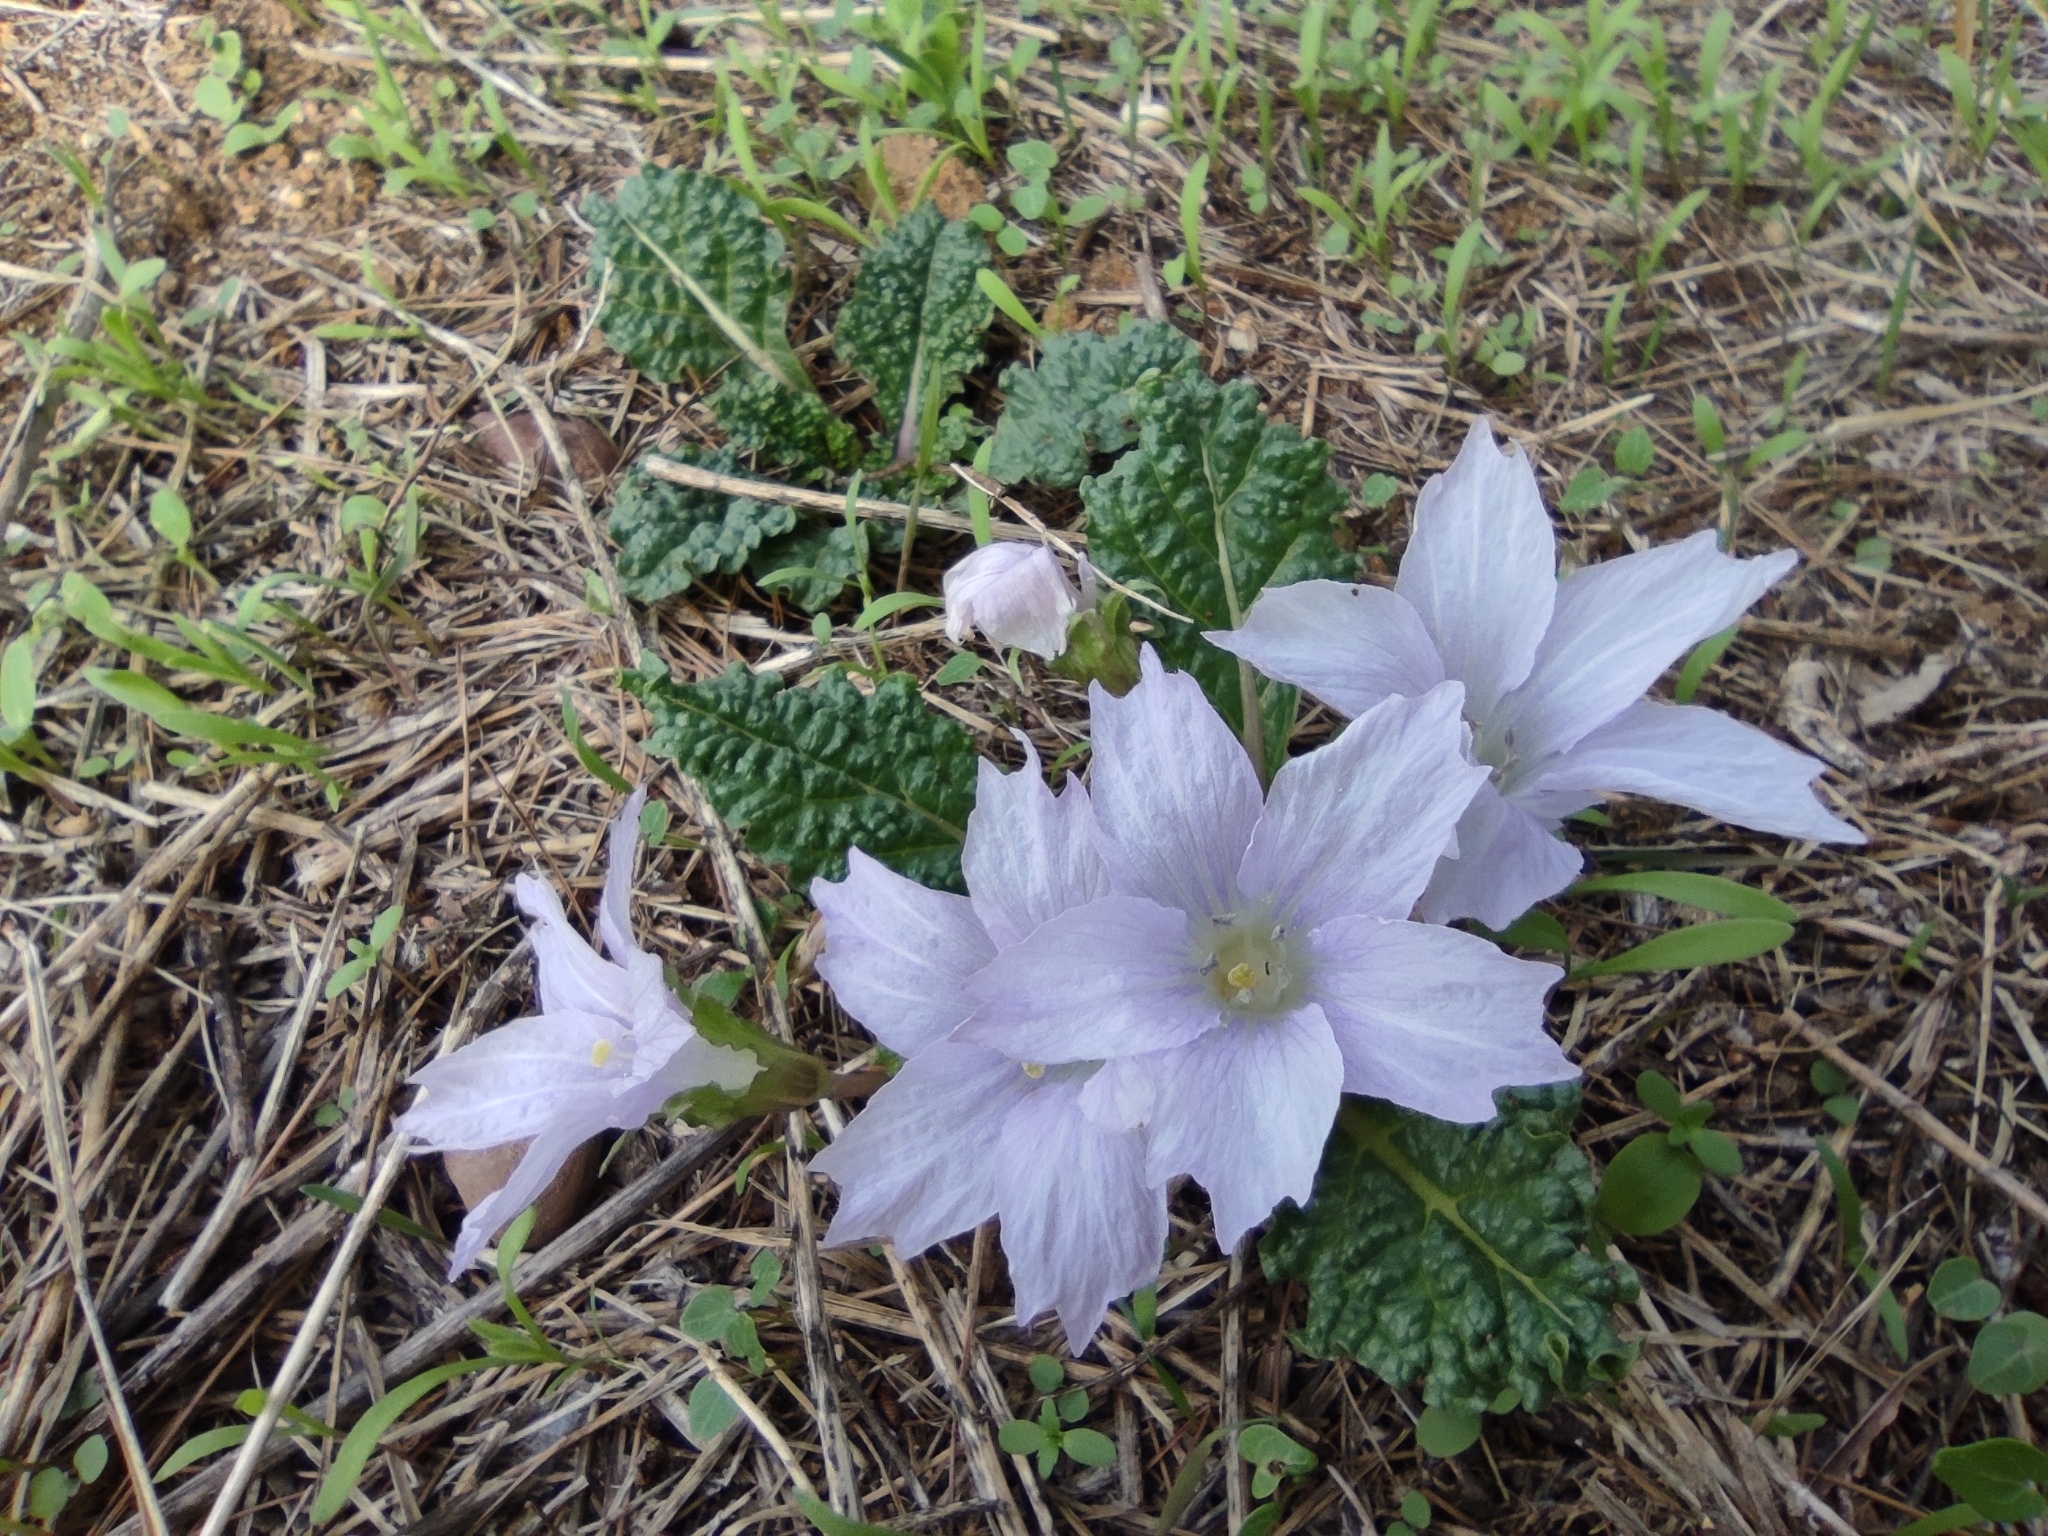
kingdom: Plantae
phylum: Tracheophyta
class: Magnoliopsida
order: Solanales
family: Solanaceae
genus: Mandragora
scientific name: Mandragora officinarum
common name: Mandrake
